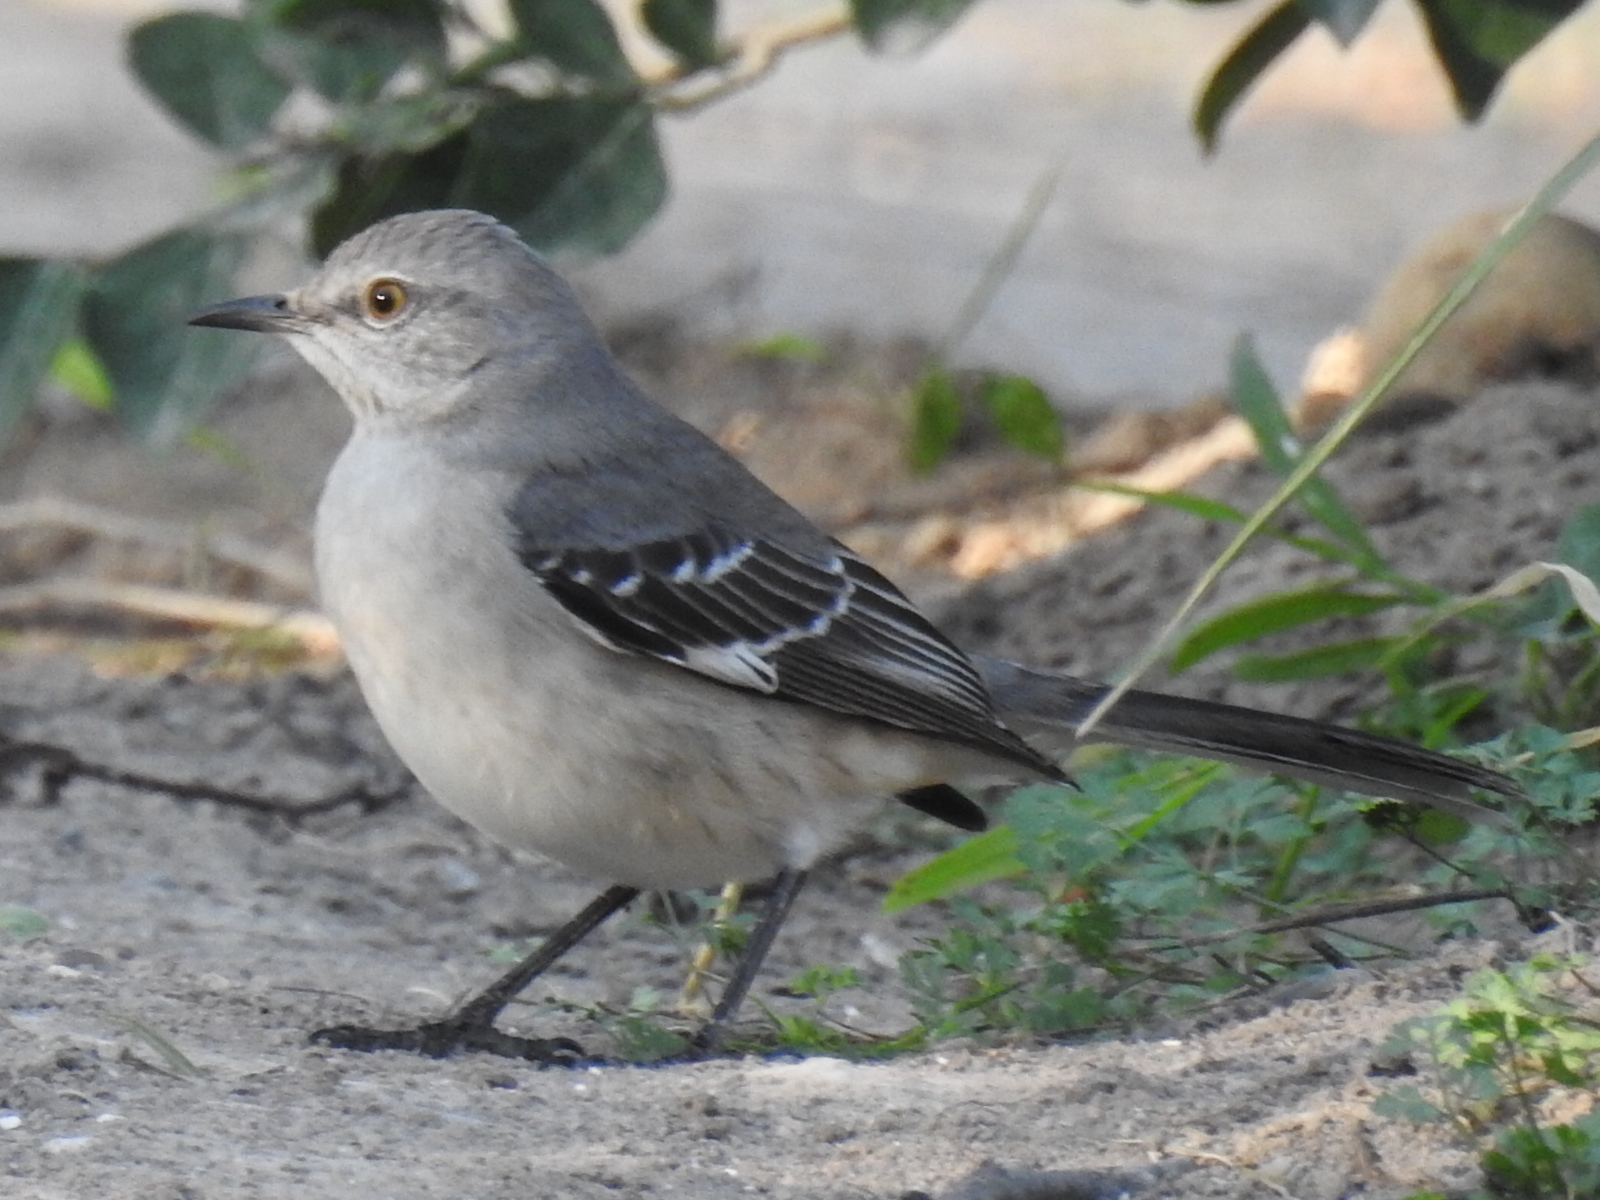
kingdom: Animalia
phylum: Chordata
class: Aves
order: Passeriformes
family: Mimidae
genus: Mimus
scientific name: Mimus polyglottos
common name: Northern mockingbird
